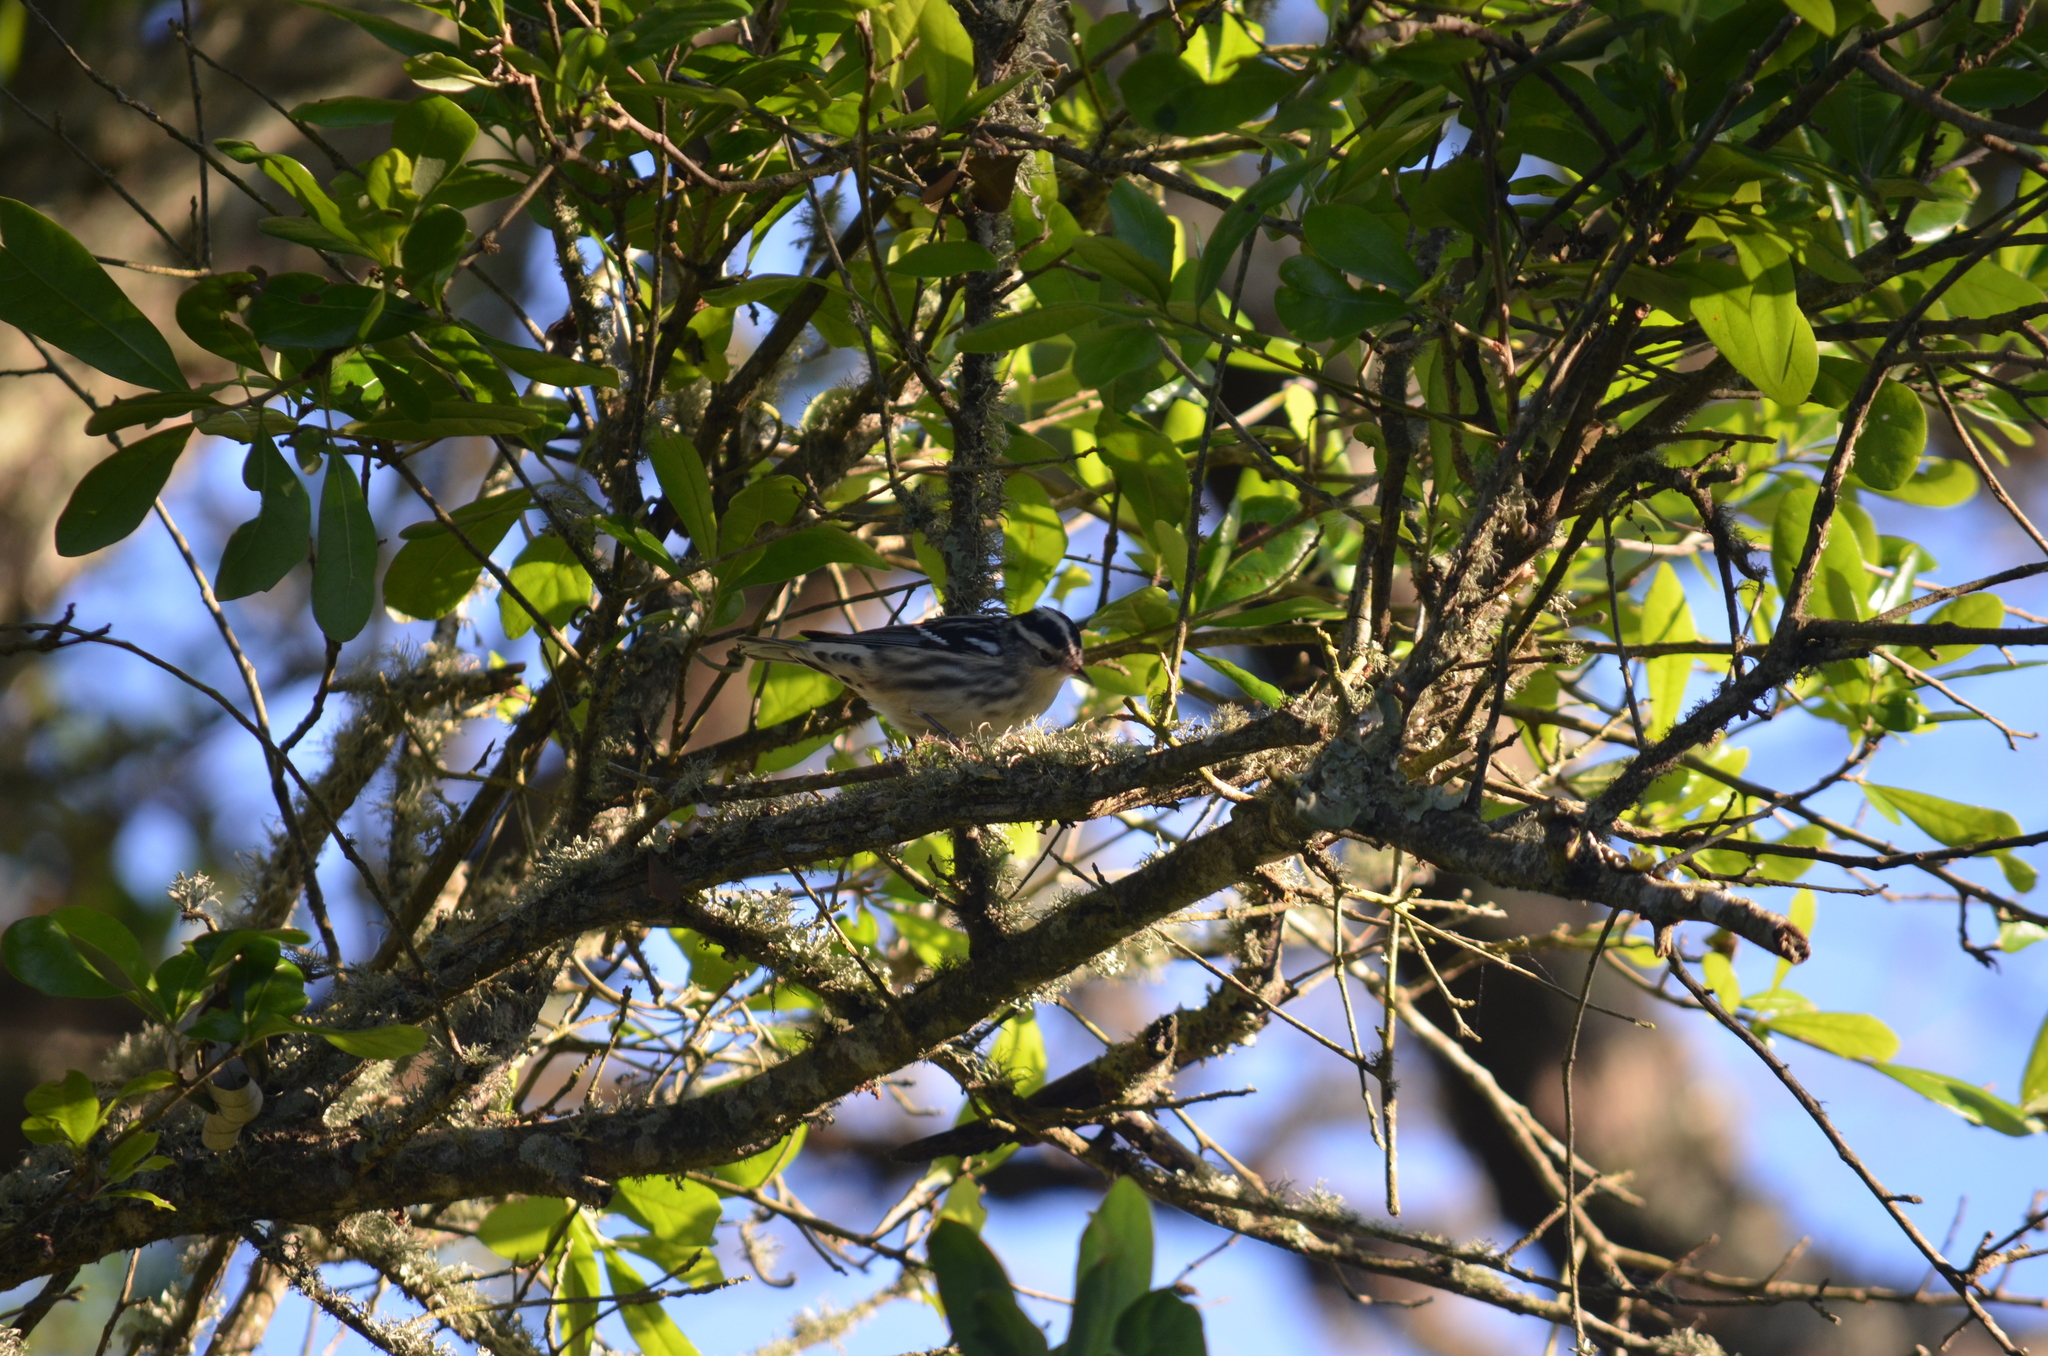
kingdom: Animalia
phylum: Chordata
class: Aves
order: Passeriformes
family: Parulidae
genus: Mniotilta
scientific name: Mniotilta varia
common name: Black-and-white warbler
